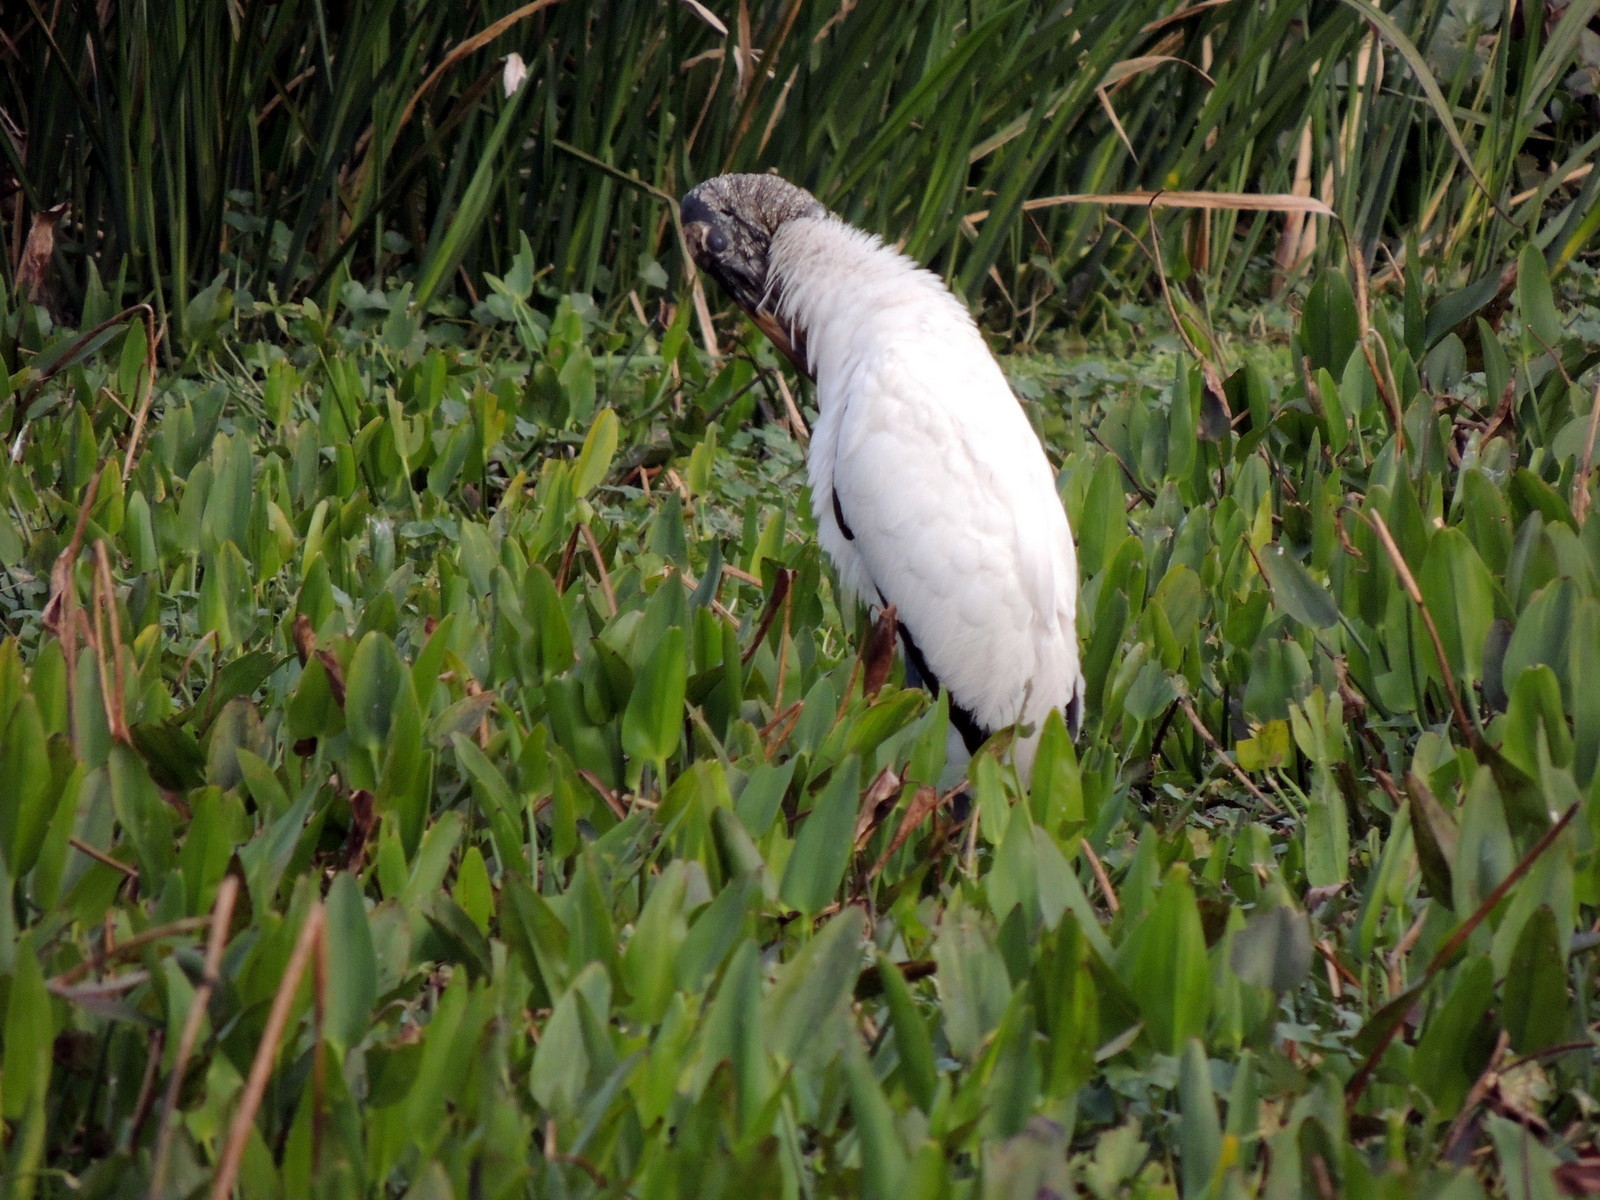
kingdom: Animalia
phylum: Chordata
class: Aves
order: Ciconiiformes
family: Ciconiidae
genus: Mycteria
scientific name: Mycteria americana
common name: Wood stork
